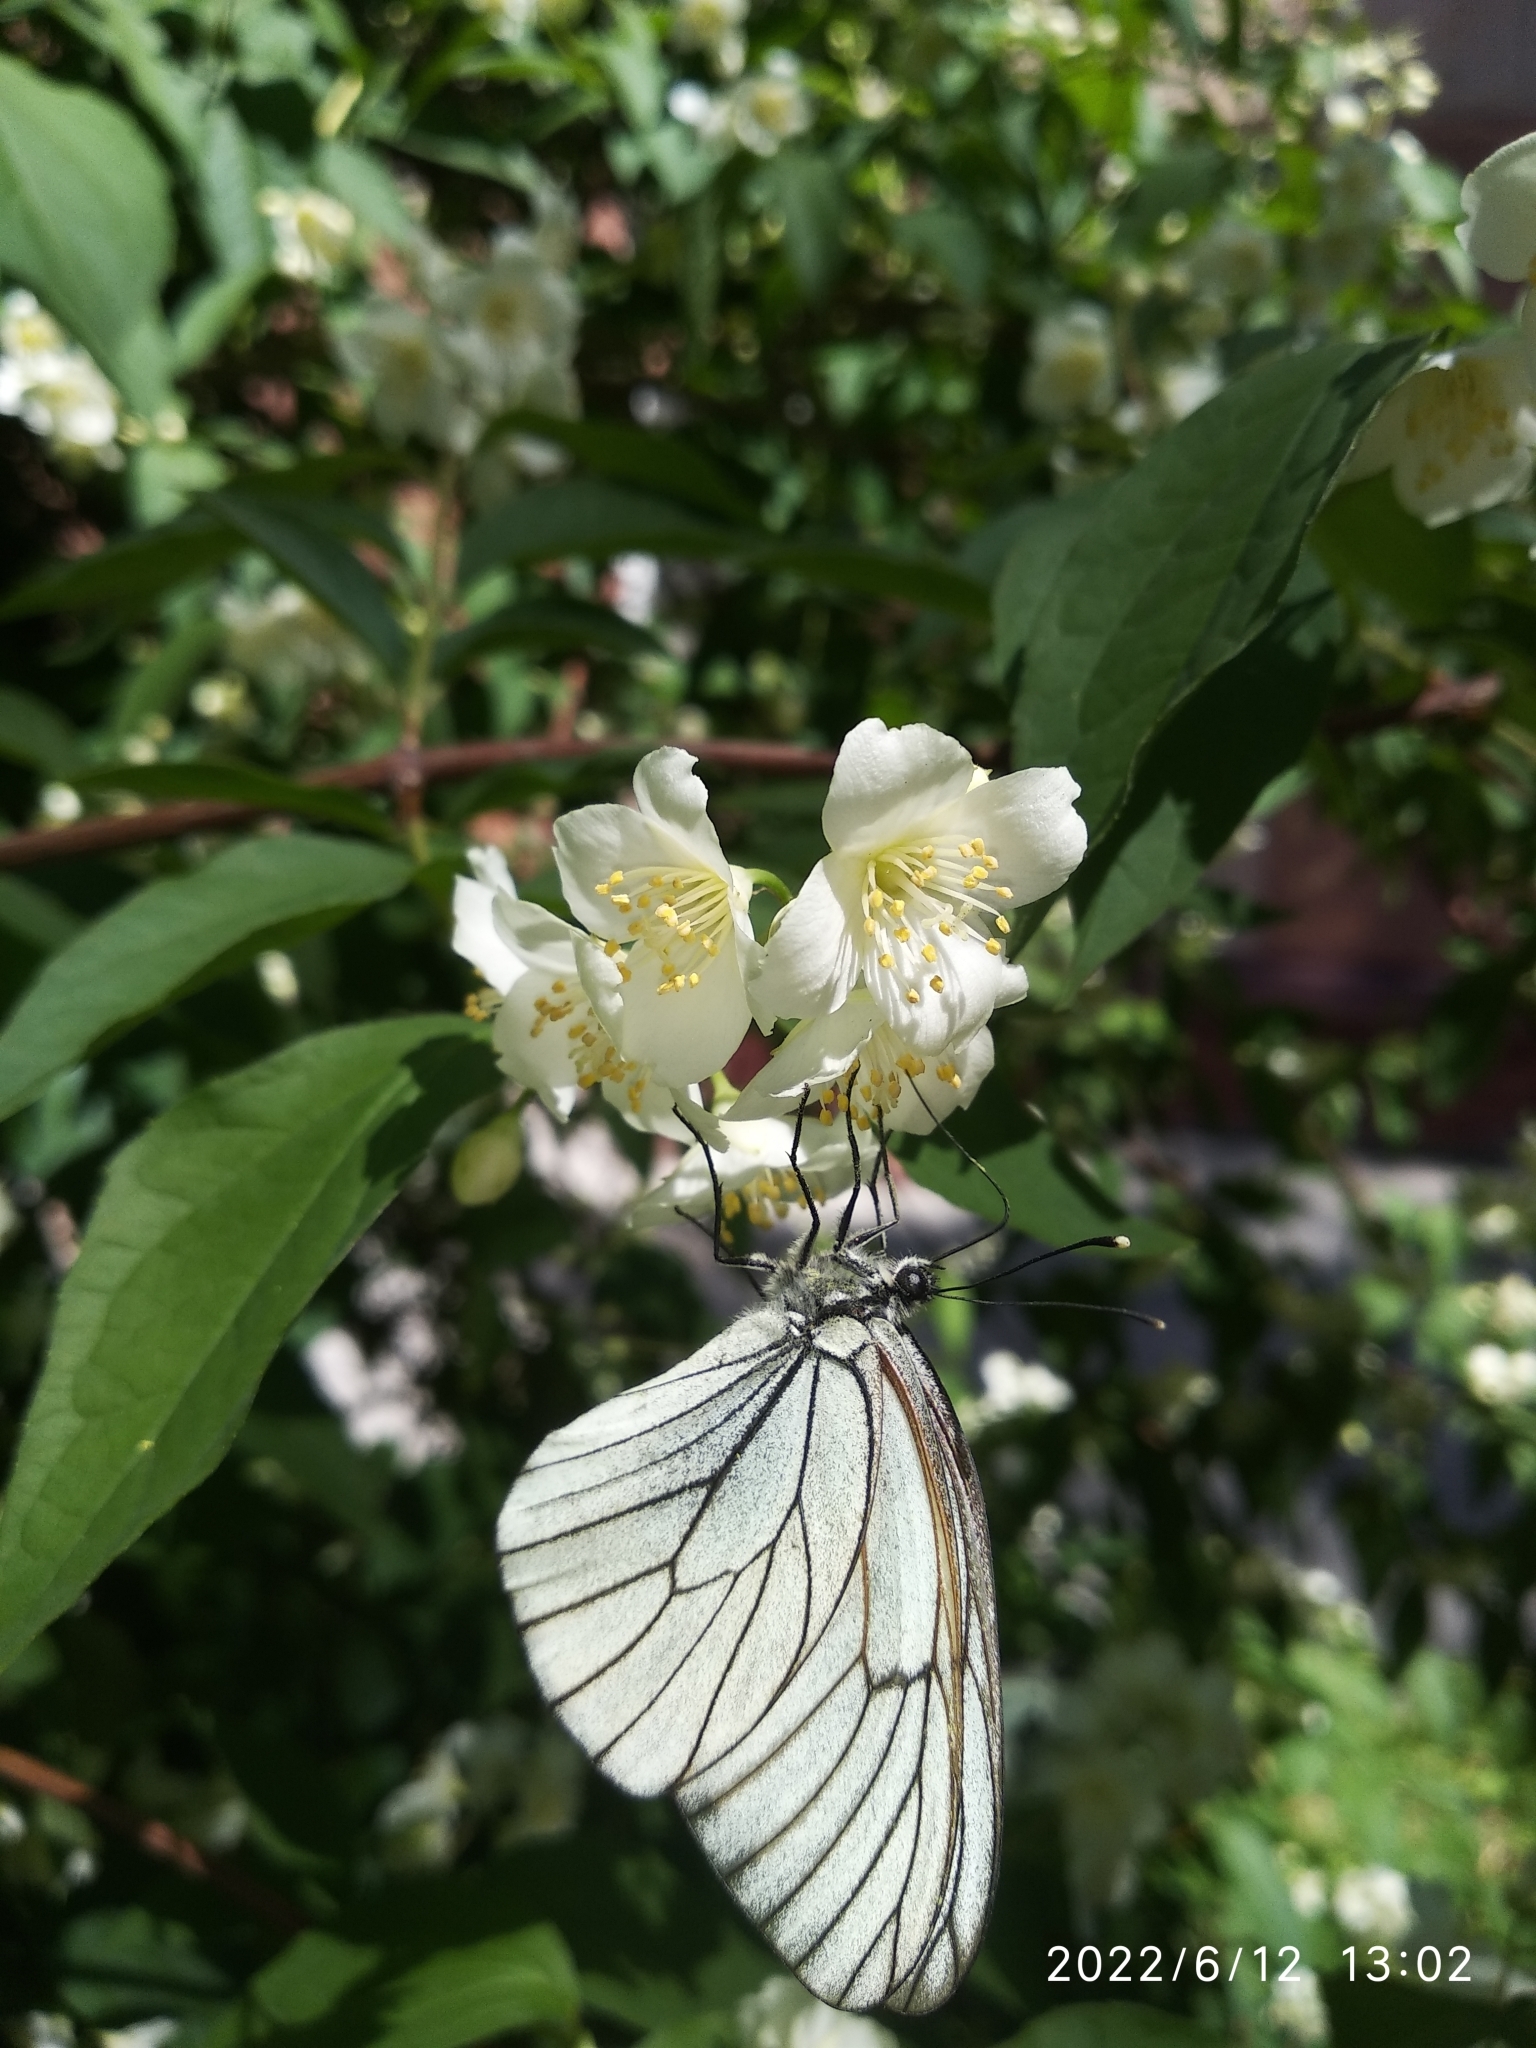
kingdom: Animalia
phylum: Arthropoda
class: Insecta
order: Lepidoptera
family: Pieridae
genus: Aporia
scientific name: Aporia crataegi
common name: Black-veined white
